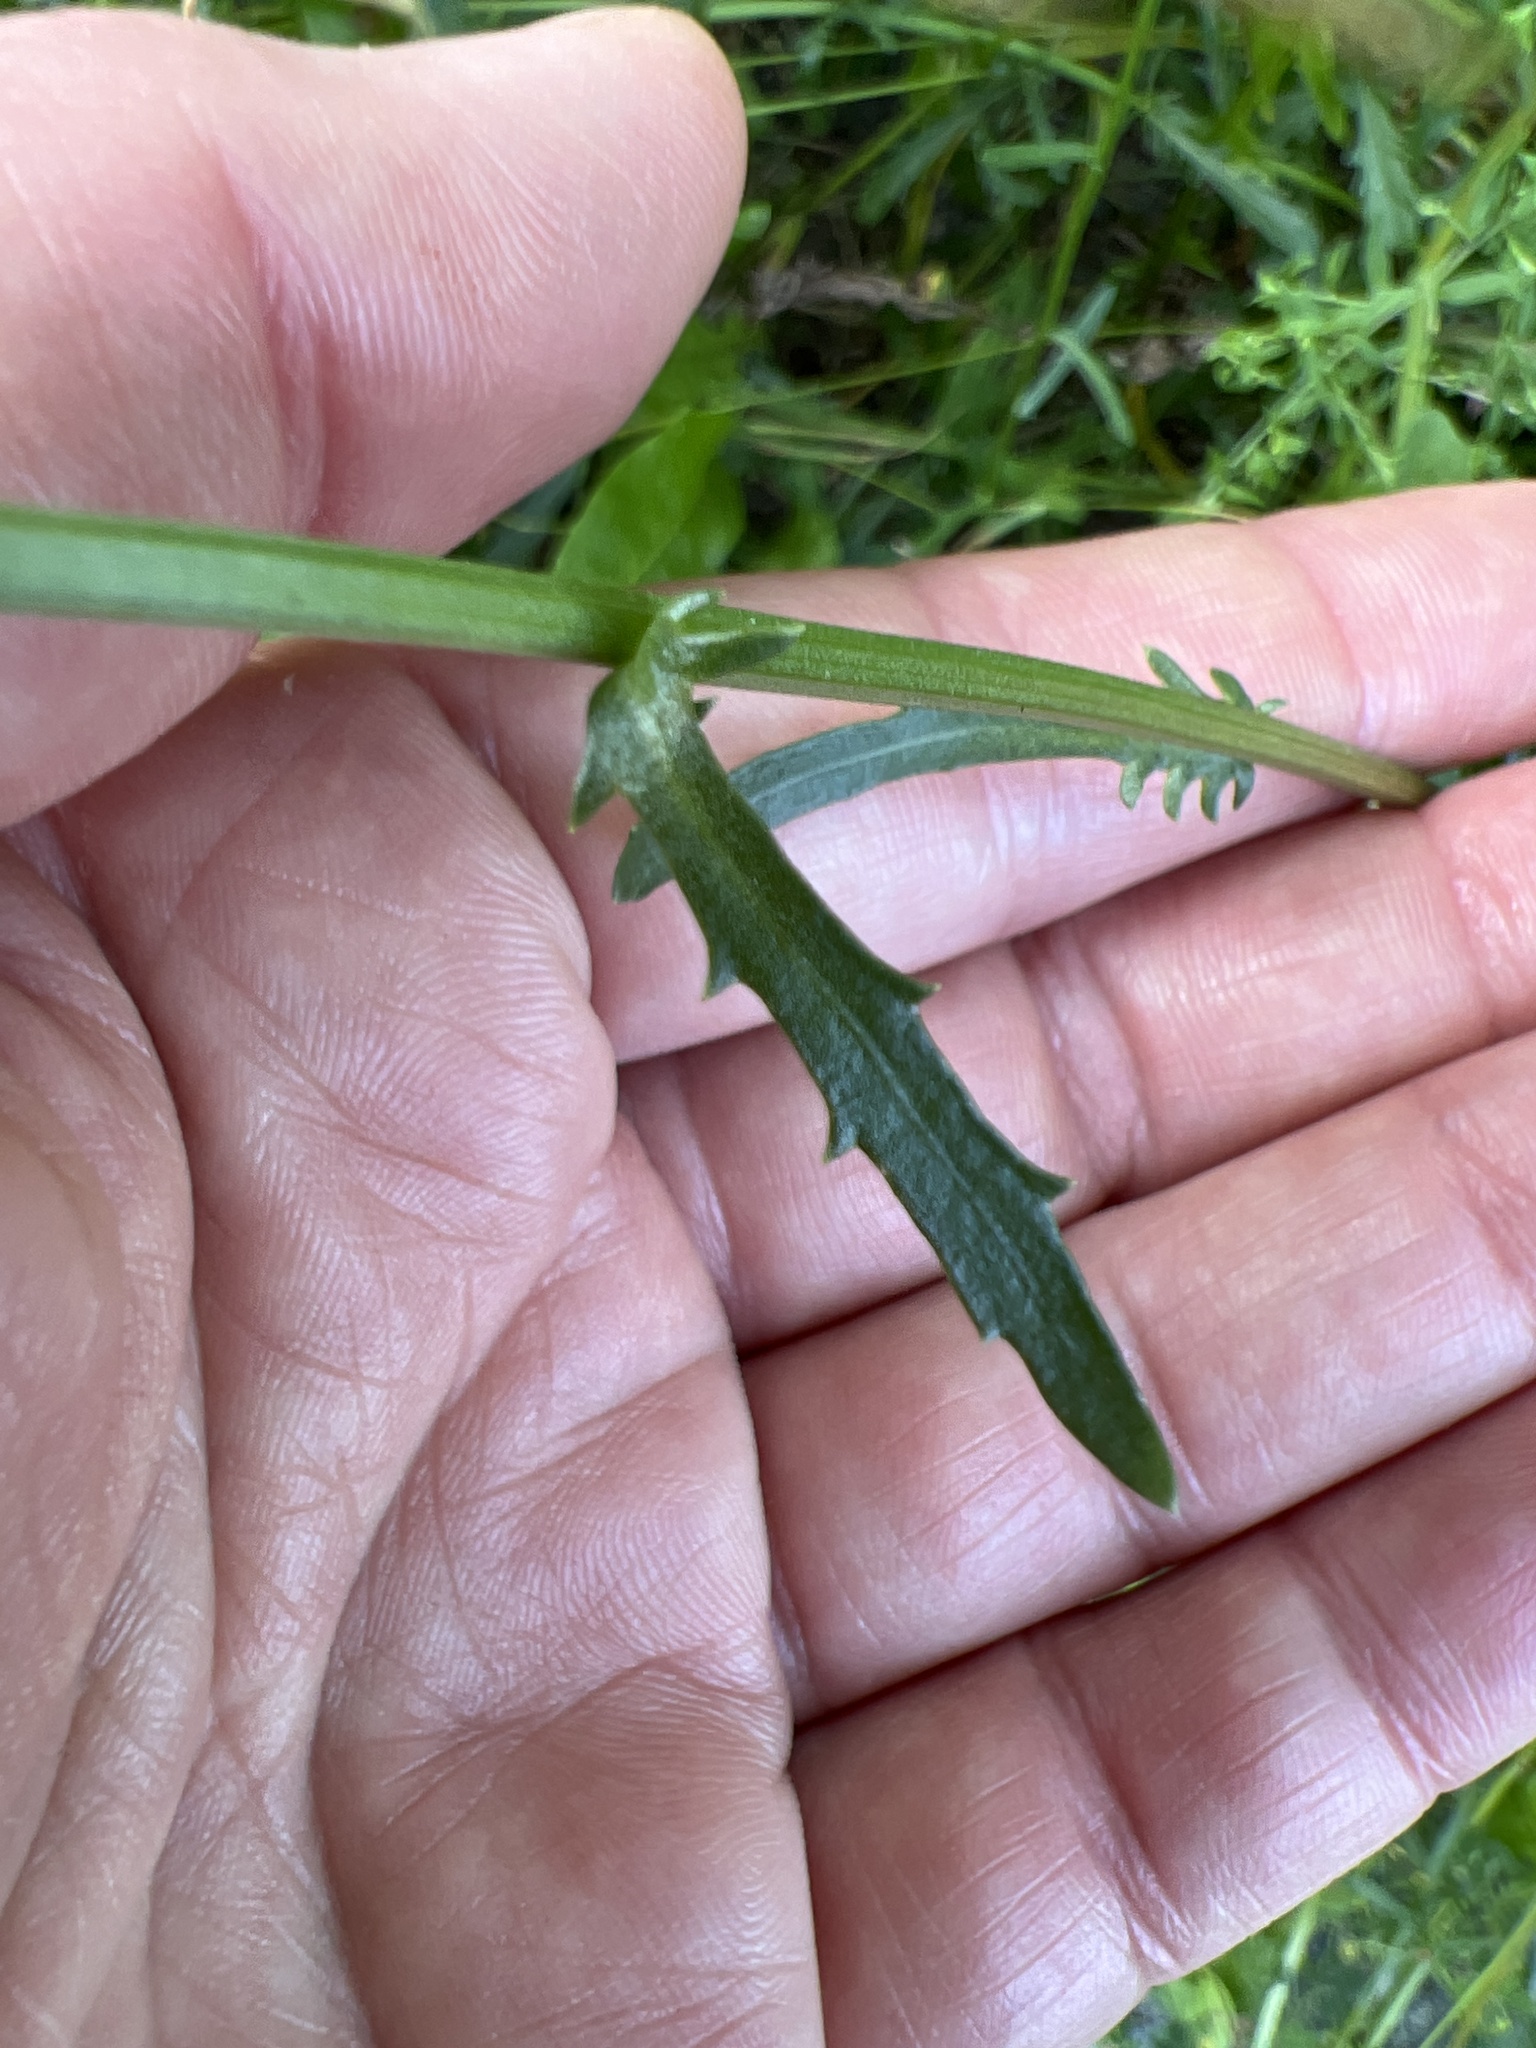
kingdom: Plantae
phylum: Tracheophyta
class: Magnoliopsida
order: Asterales
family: Asteraceae
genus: Leucanthemum
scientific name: Leucanthemum vulgare
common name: Oxeye daisy
